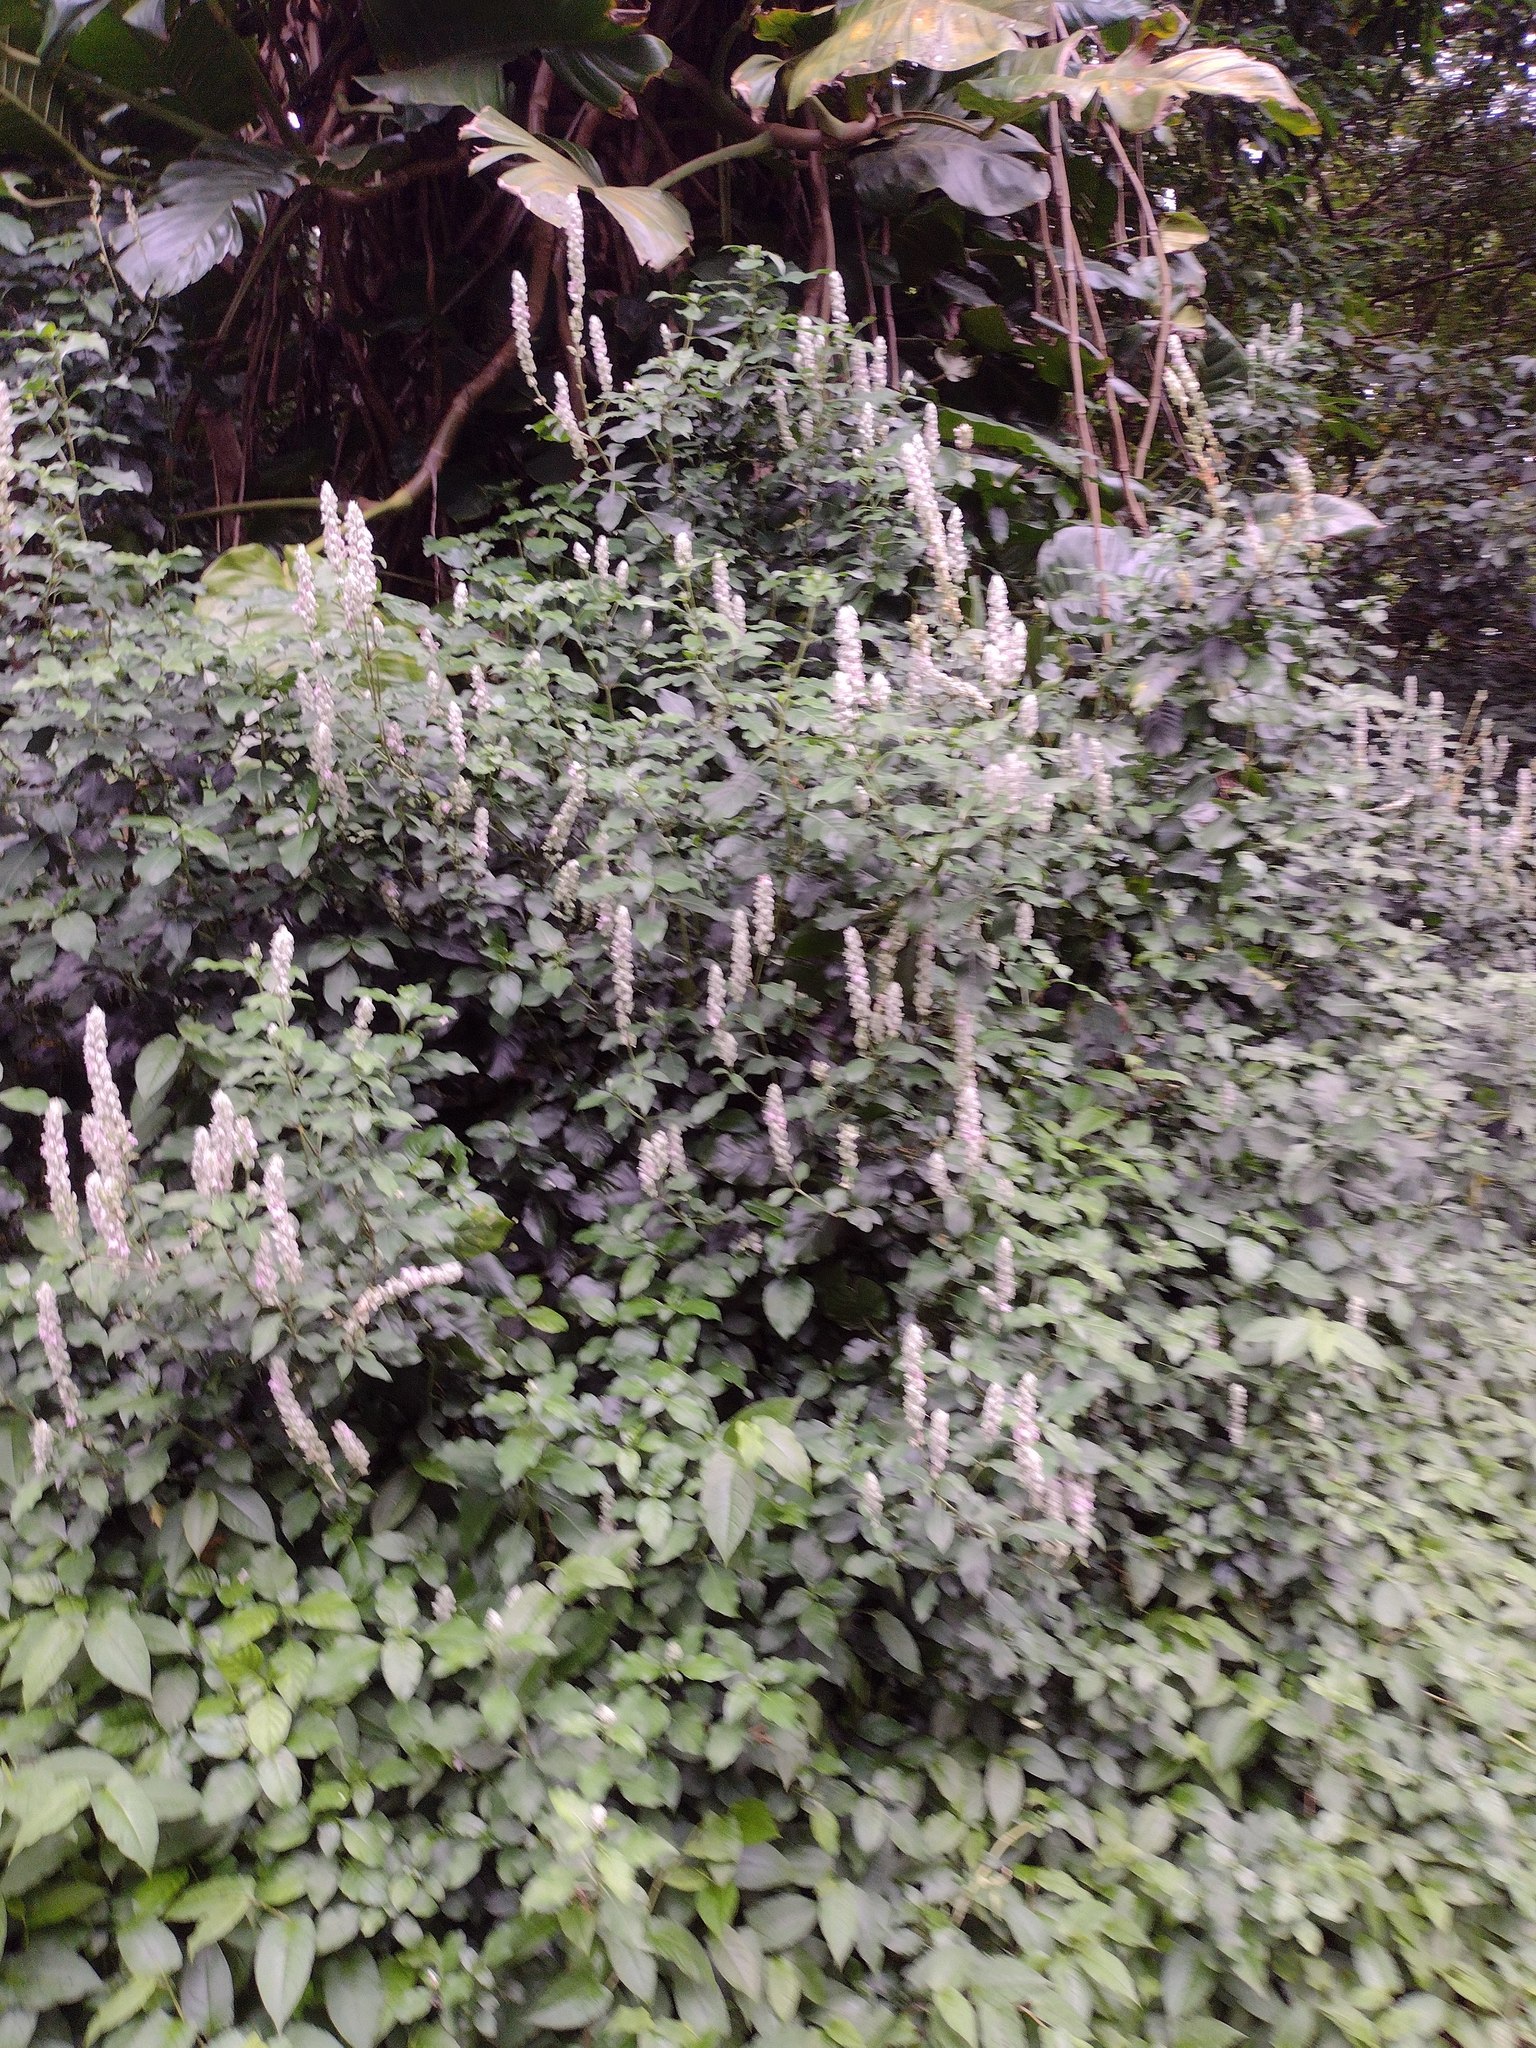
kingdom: Plantae
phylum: Tracheophyta
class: Magnoliopsida
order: Lamiales
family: Acanthaceae
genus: Justicia
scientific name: Justicia betonica
